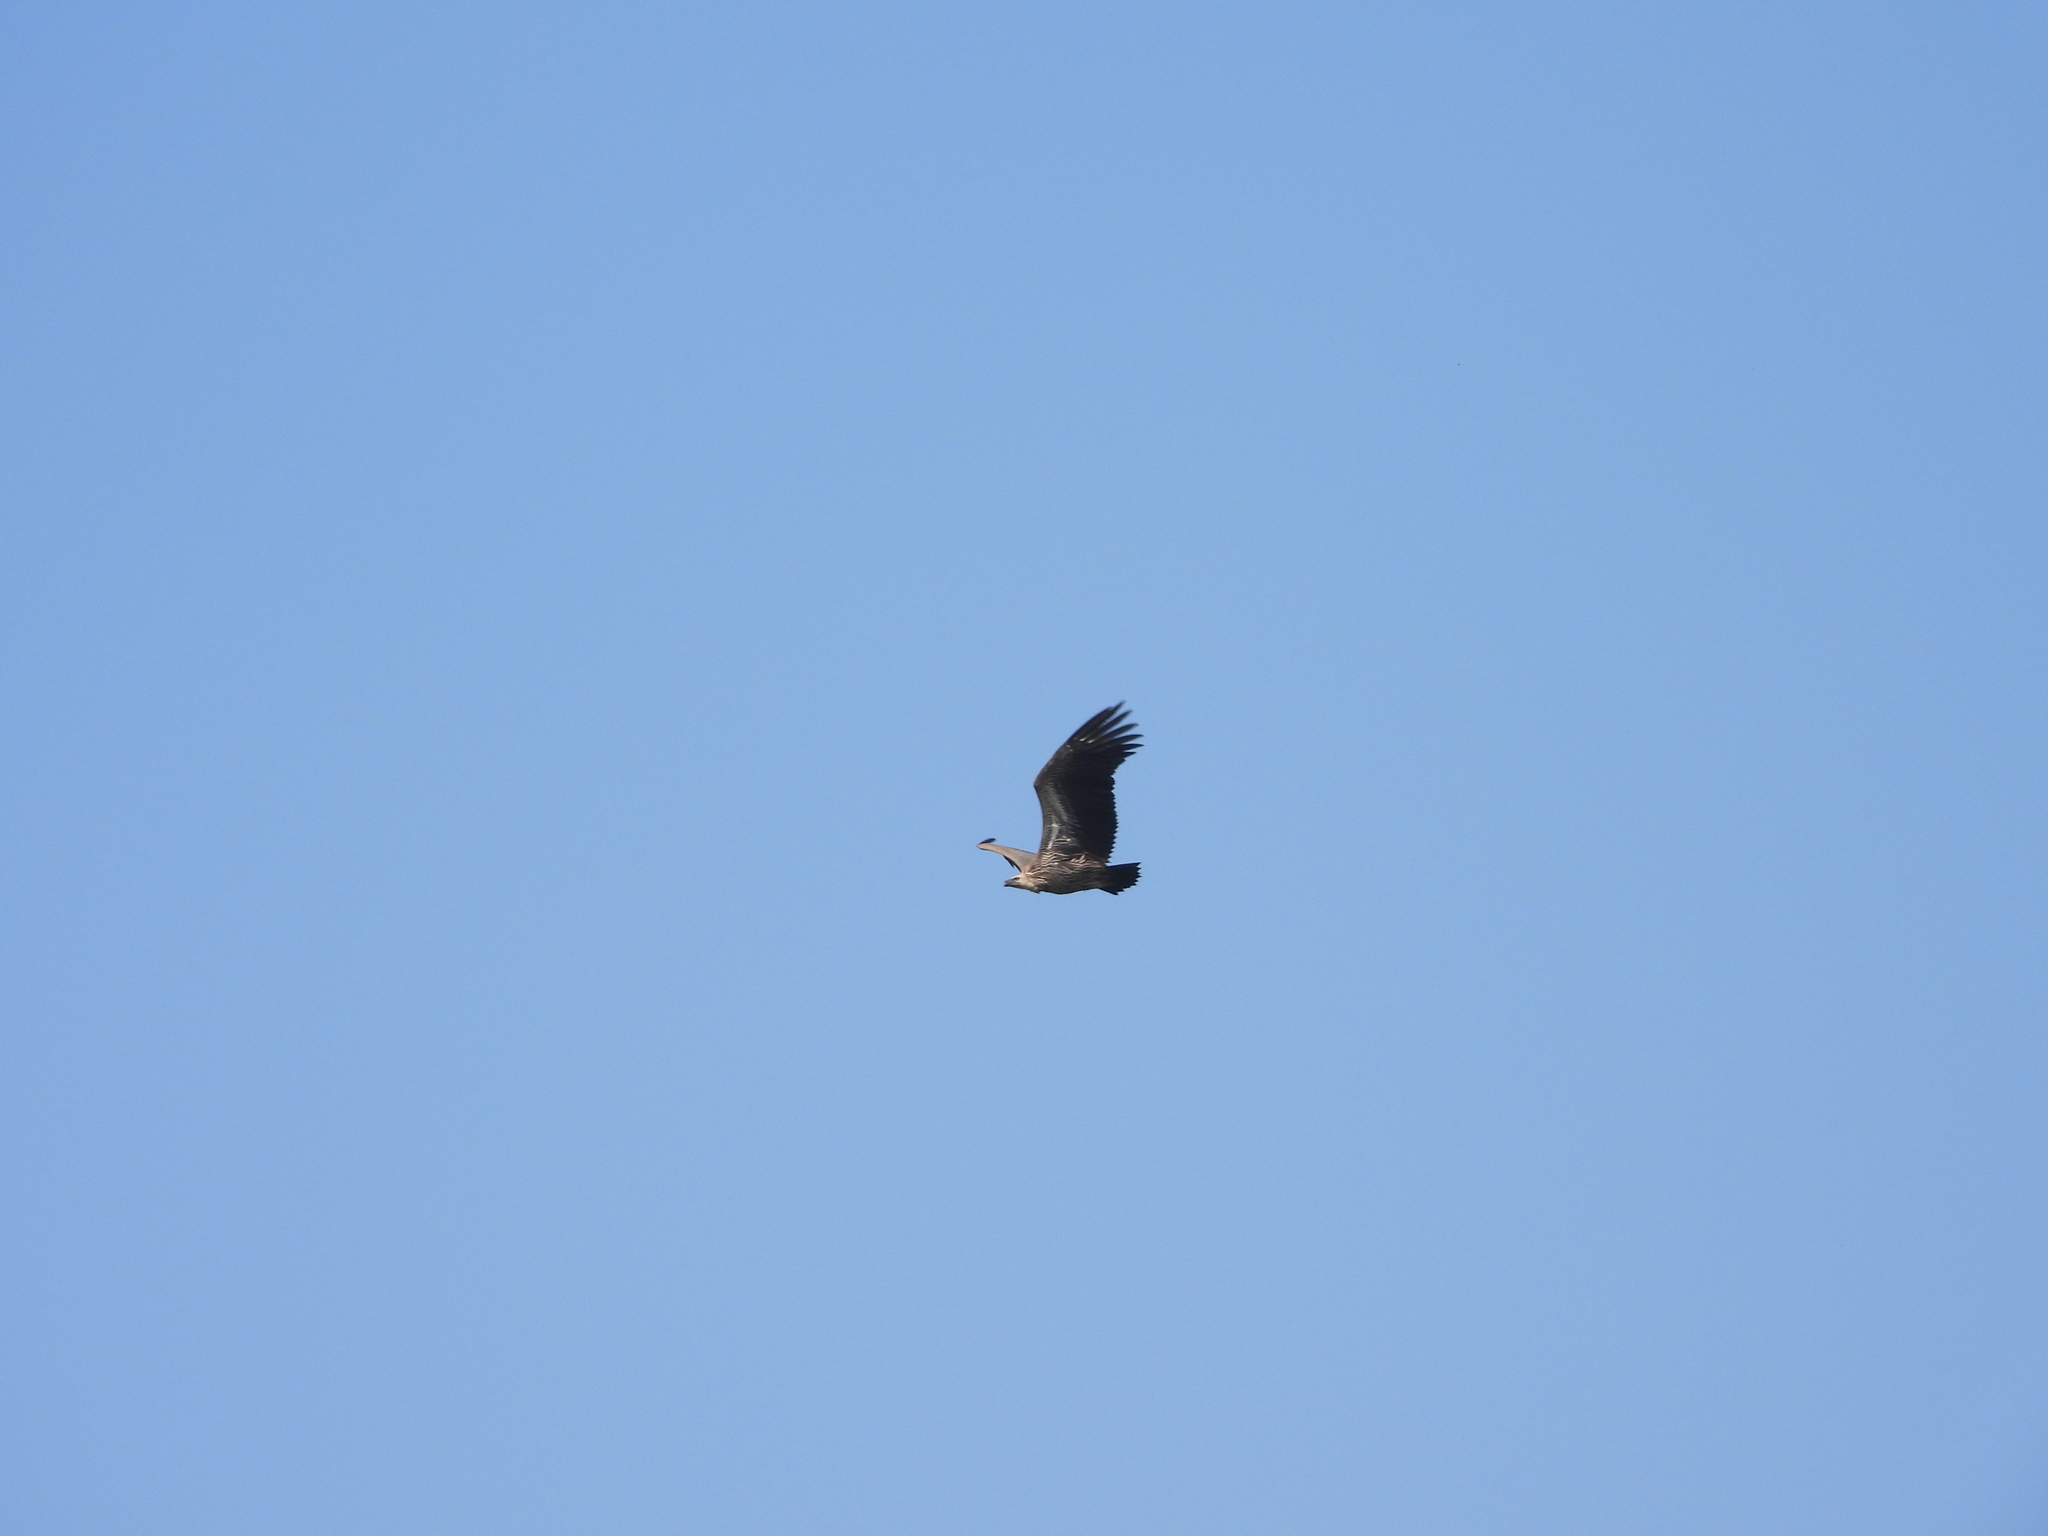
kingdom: Animalia
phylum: Chordata
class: Aves
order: Accipitriformes
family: Accipitridae
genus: Gyps
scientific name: Gyps africanus
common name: White-backed vulture
